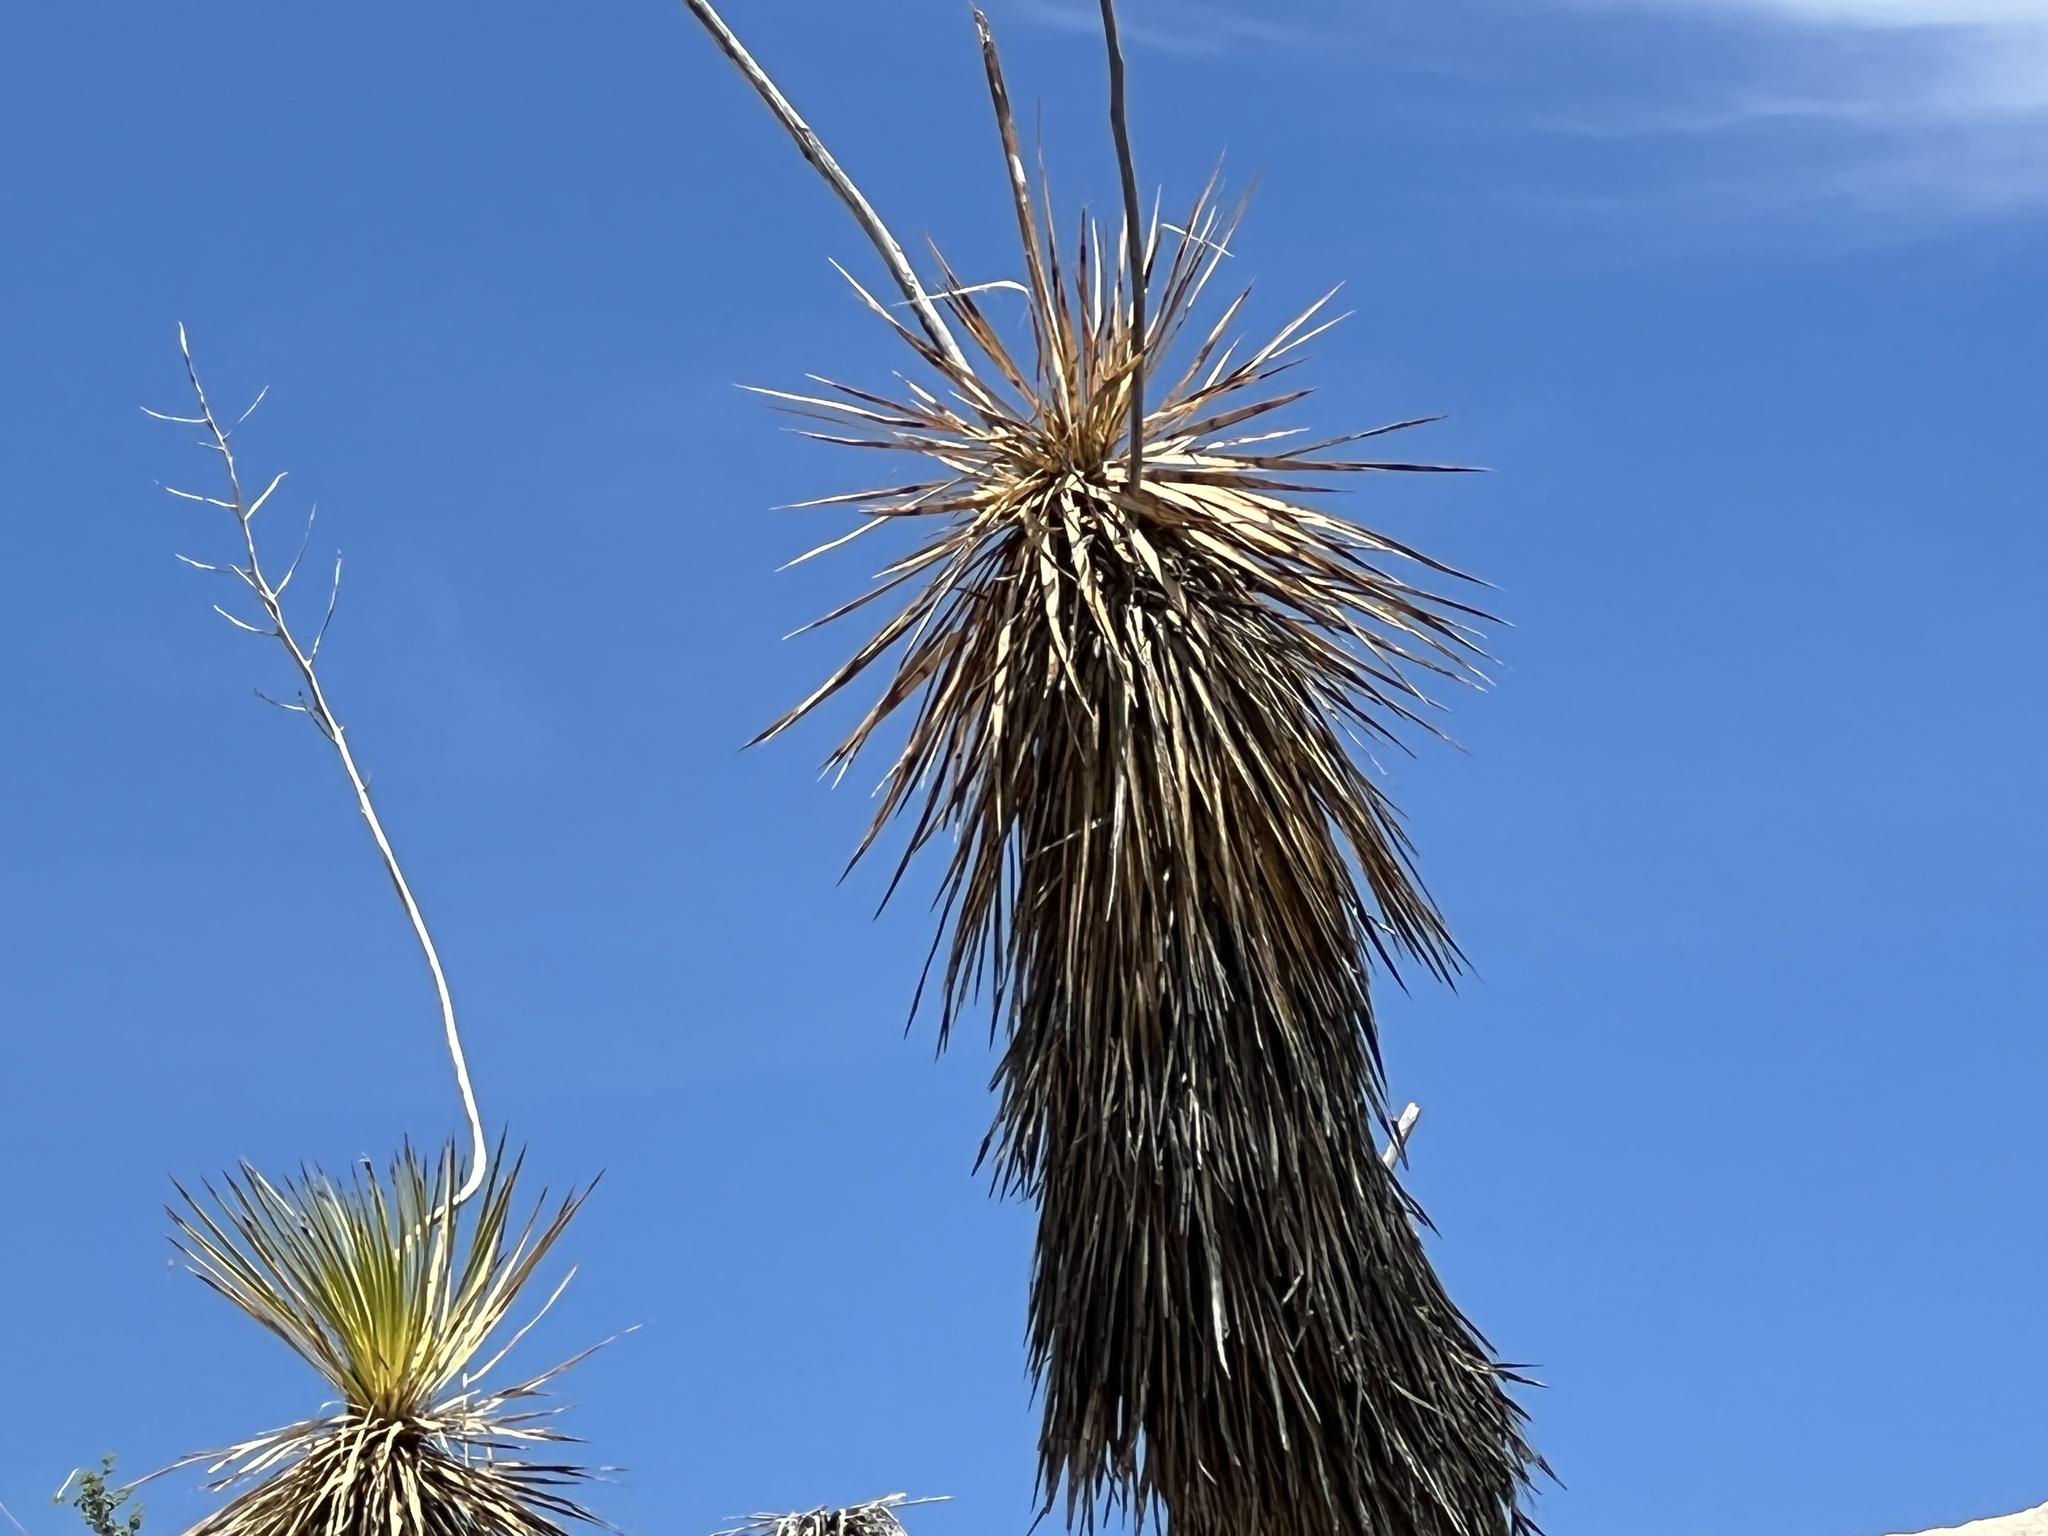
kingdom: Plantae
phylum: Tracheophyta
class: Liliopsida
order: Asparagales
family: Asparagaceae
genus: Yucca
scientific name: Yucca elata
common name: Palmella
